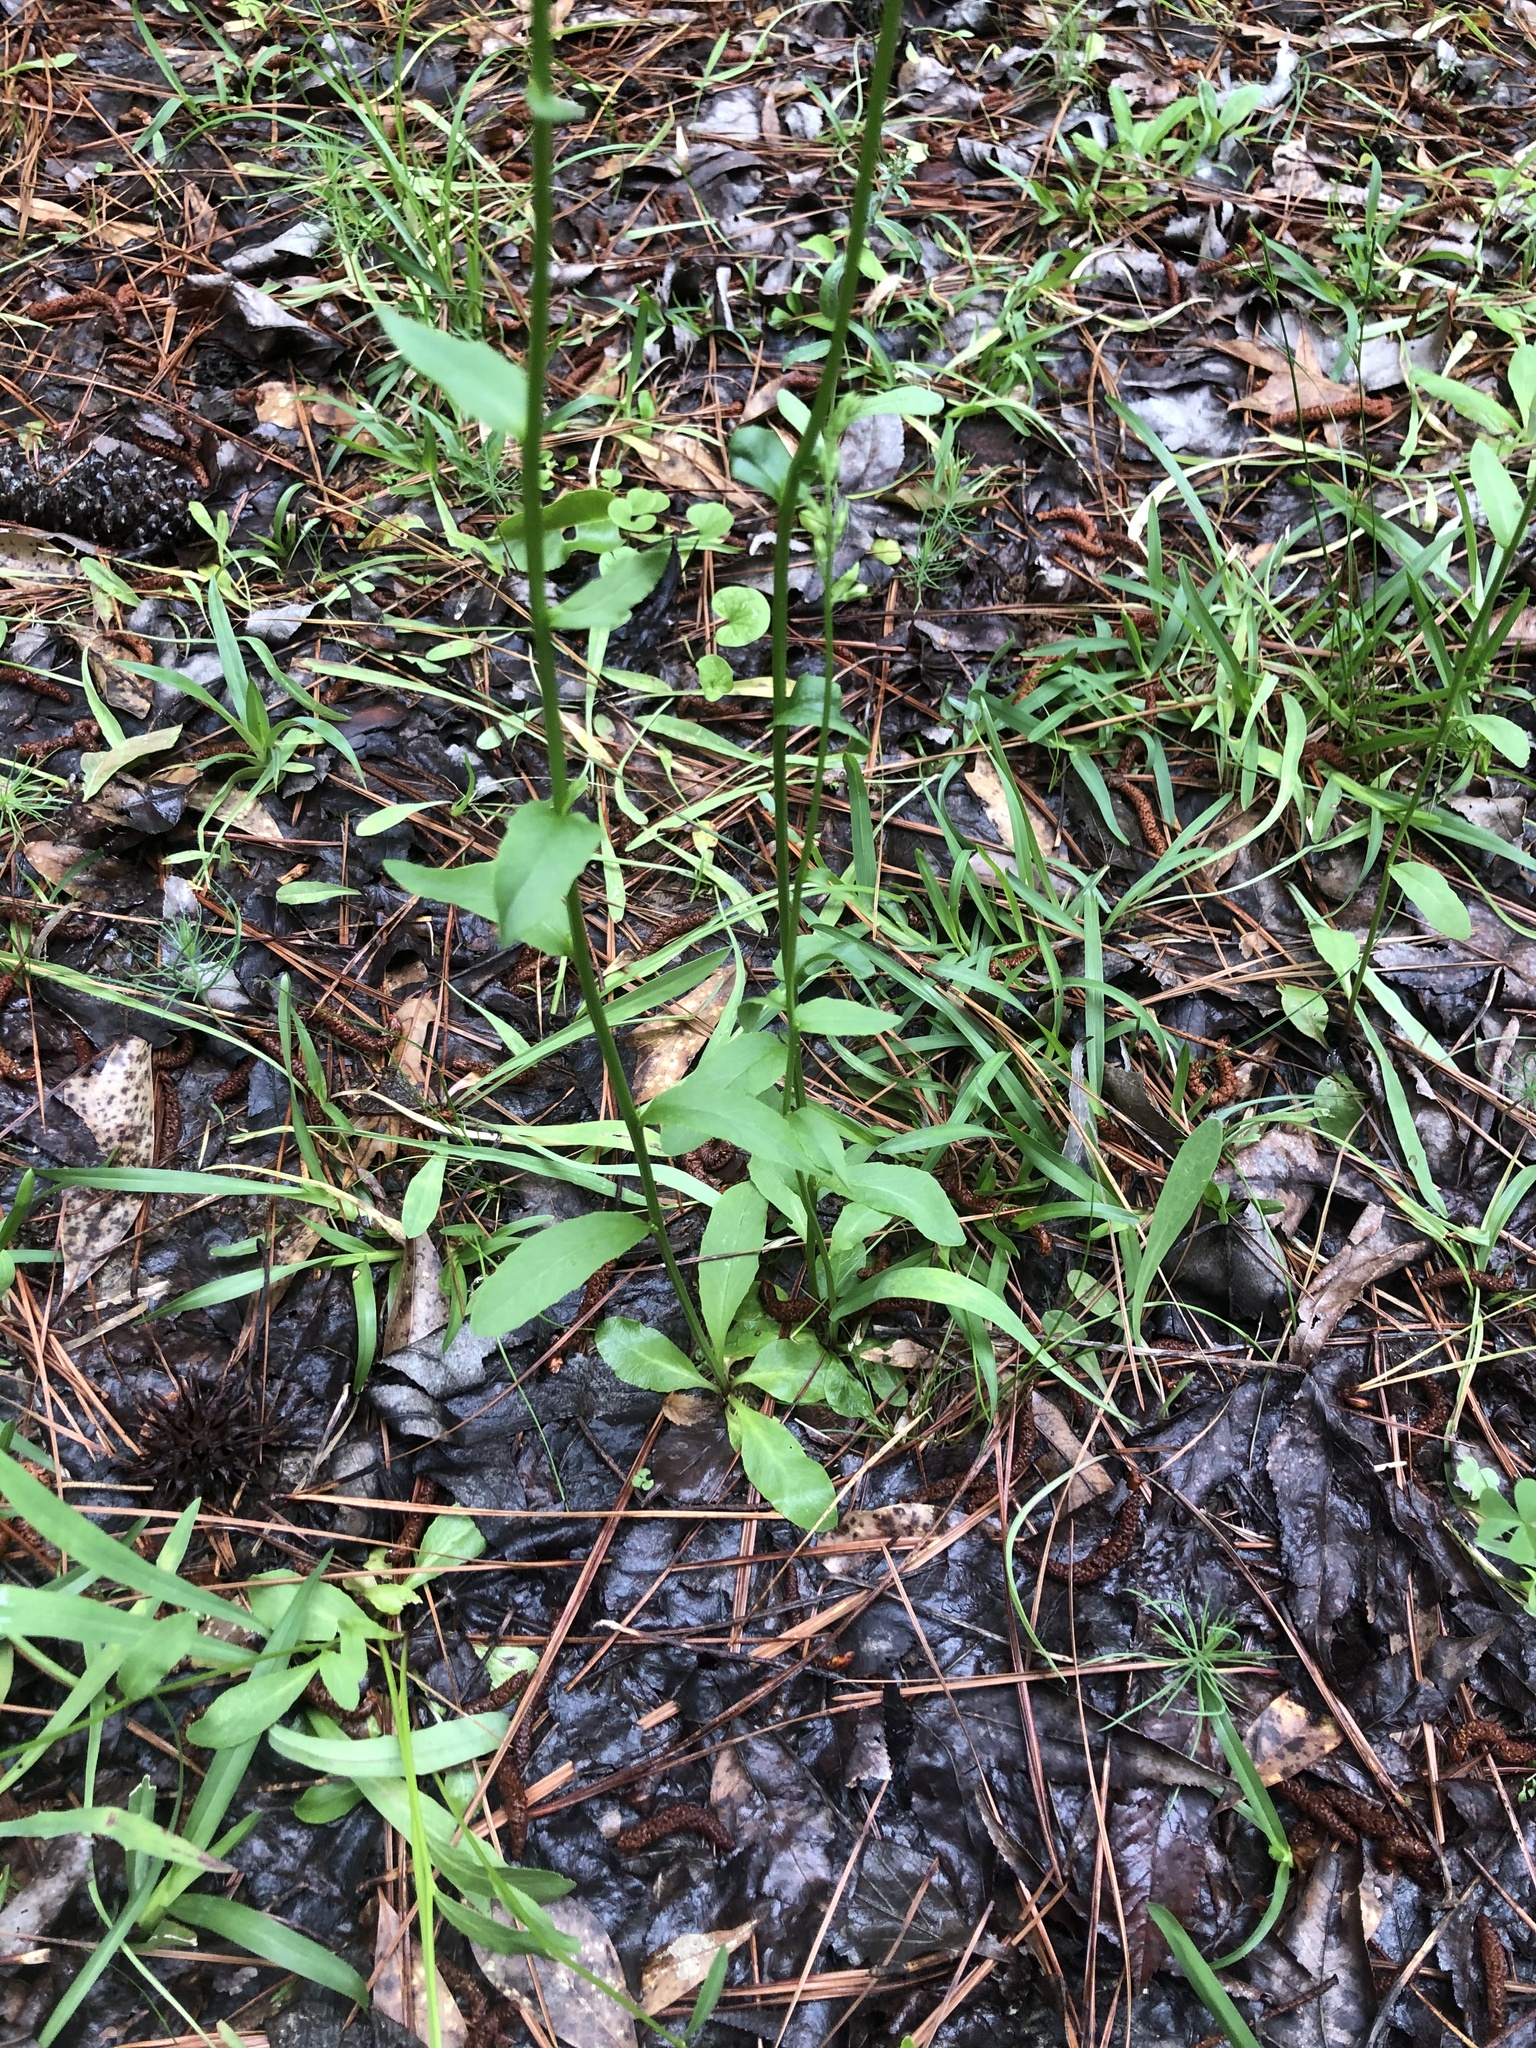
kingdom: Plantae
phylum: Tracheophyta
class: Magnoliopsida
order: Asterales
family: Campanulaceae
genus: Lobelia
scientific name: Lobelia appendiculata
